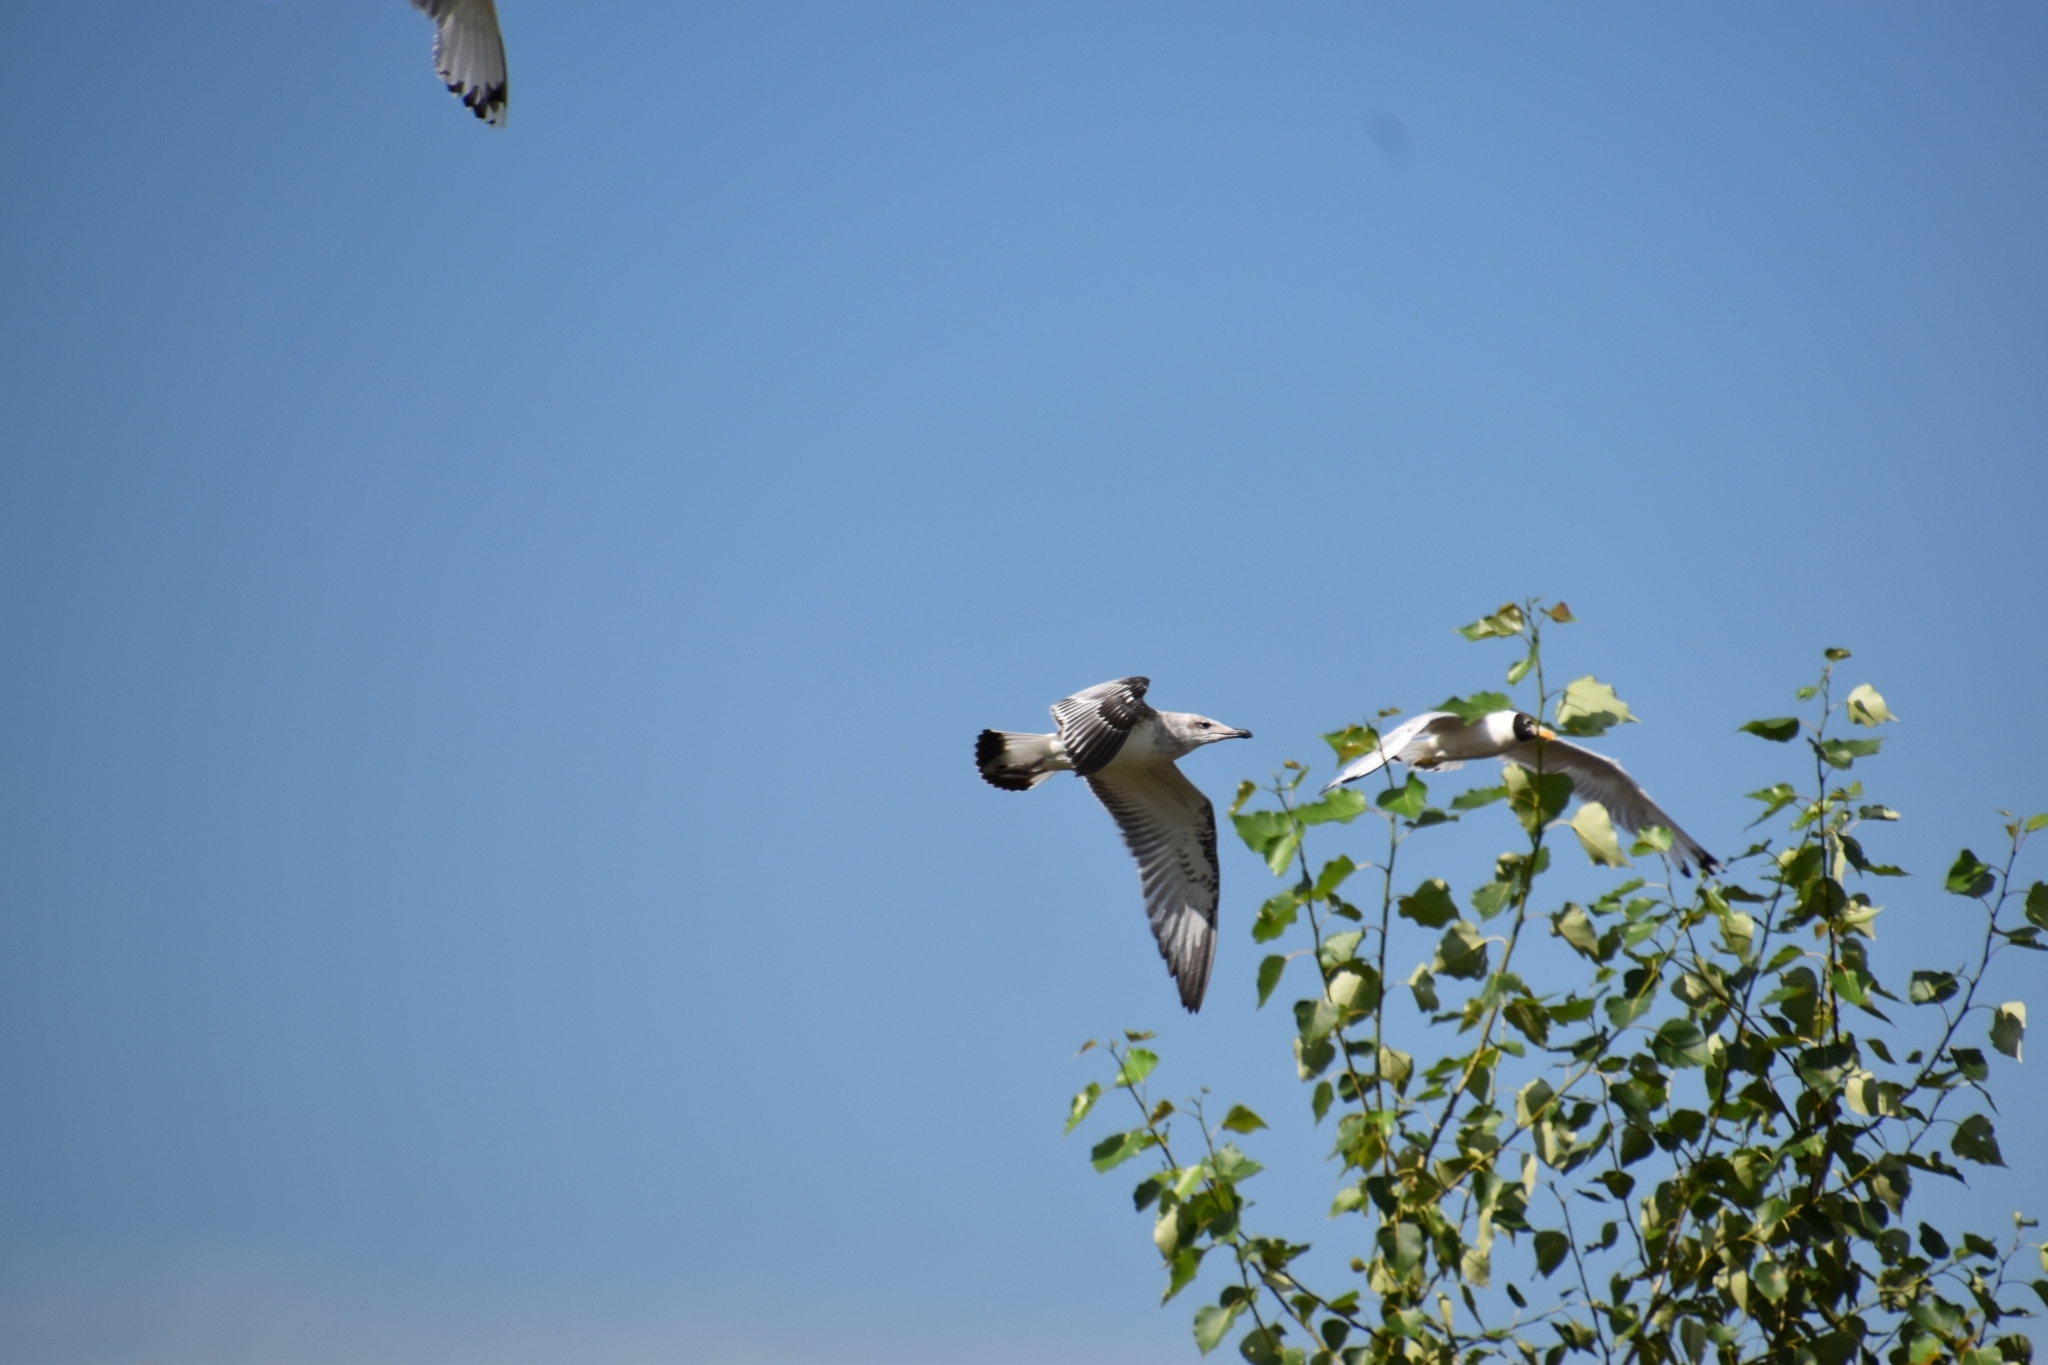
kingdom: Animalia
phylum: Chordata
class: Aves
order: Charadriiformes
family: Laridae
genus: Ichthyaetus
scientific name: Ichthyaetus ichthyaetus
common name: Pallas's gull
